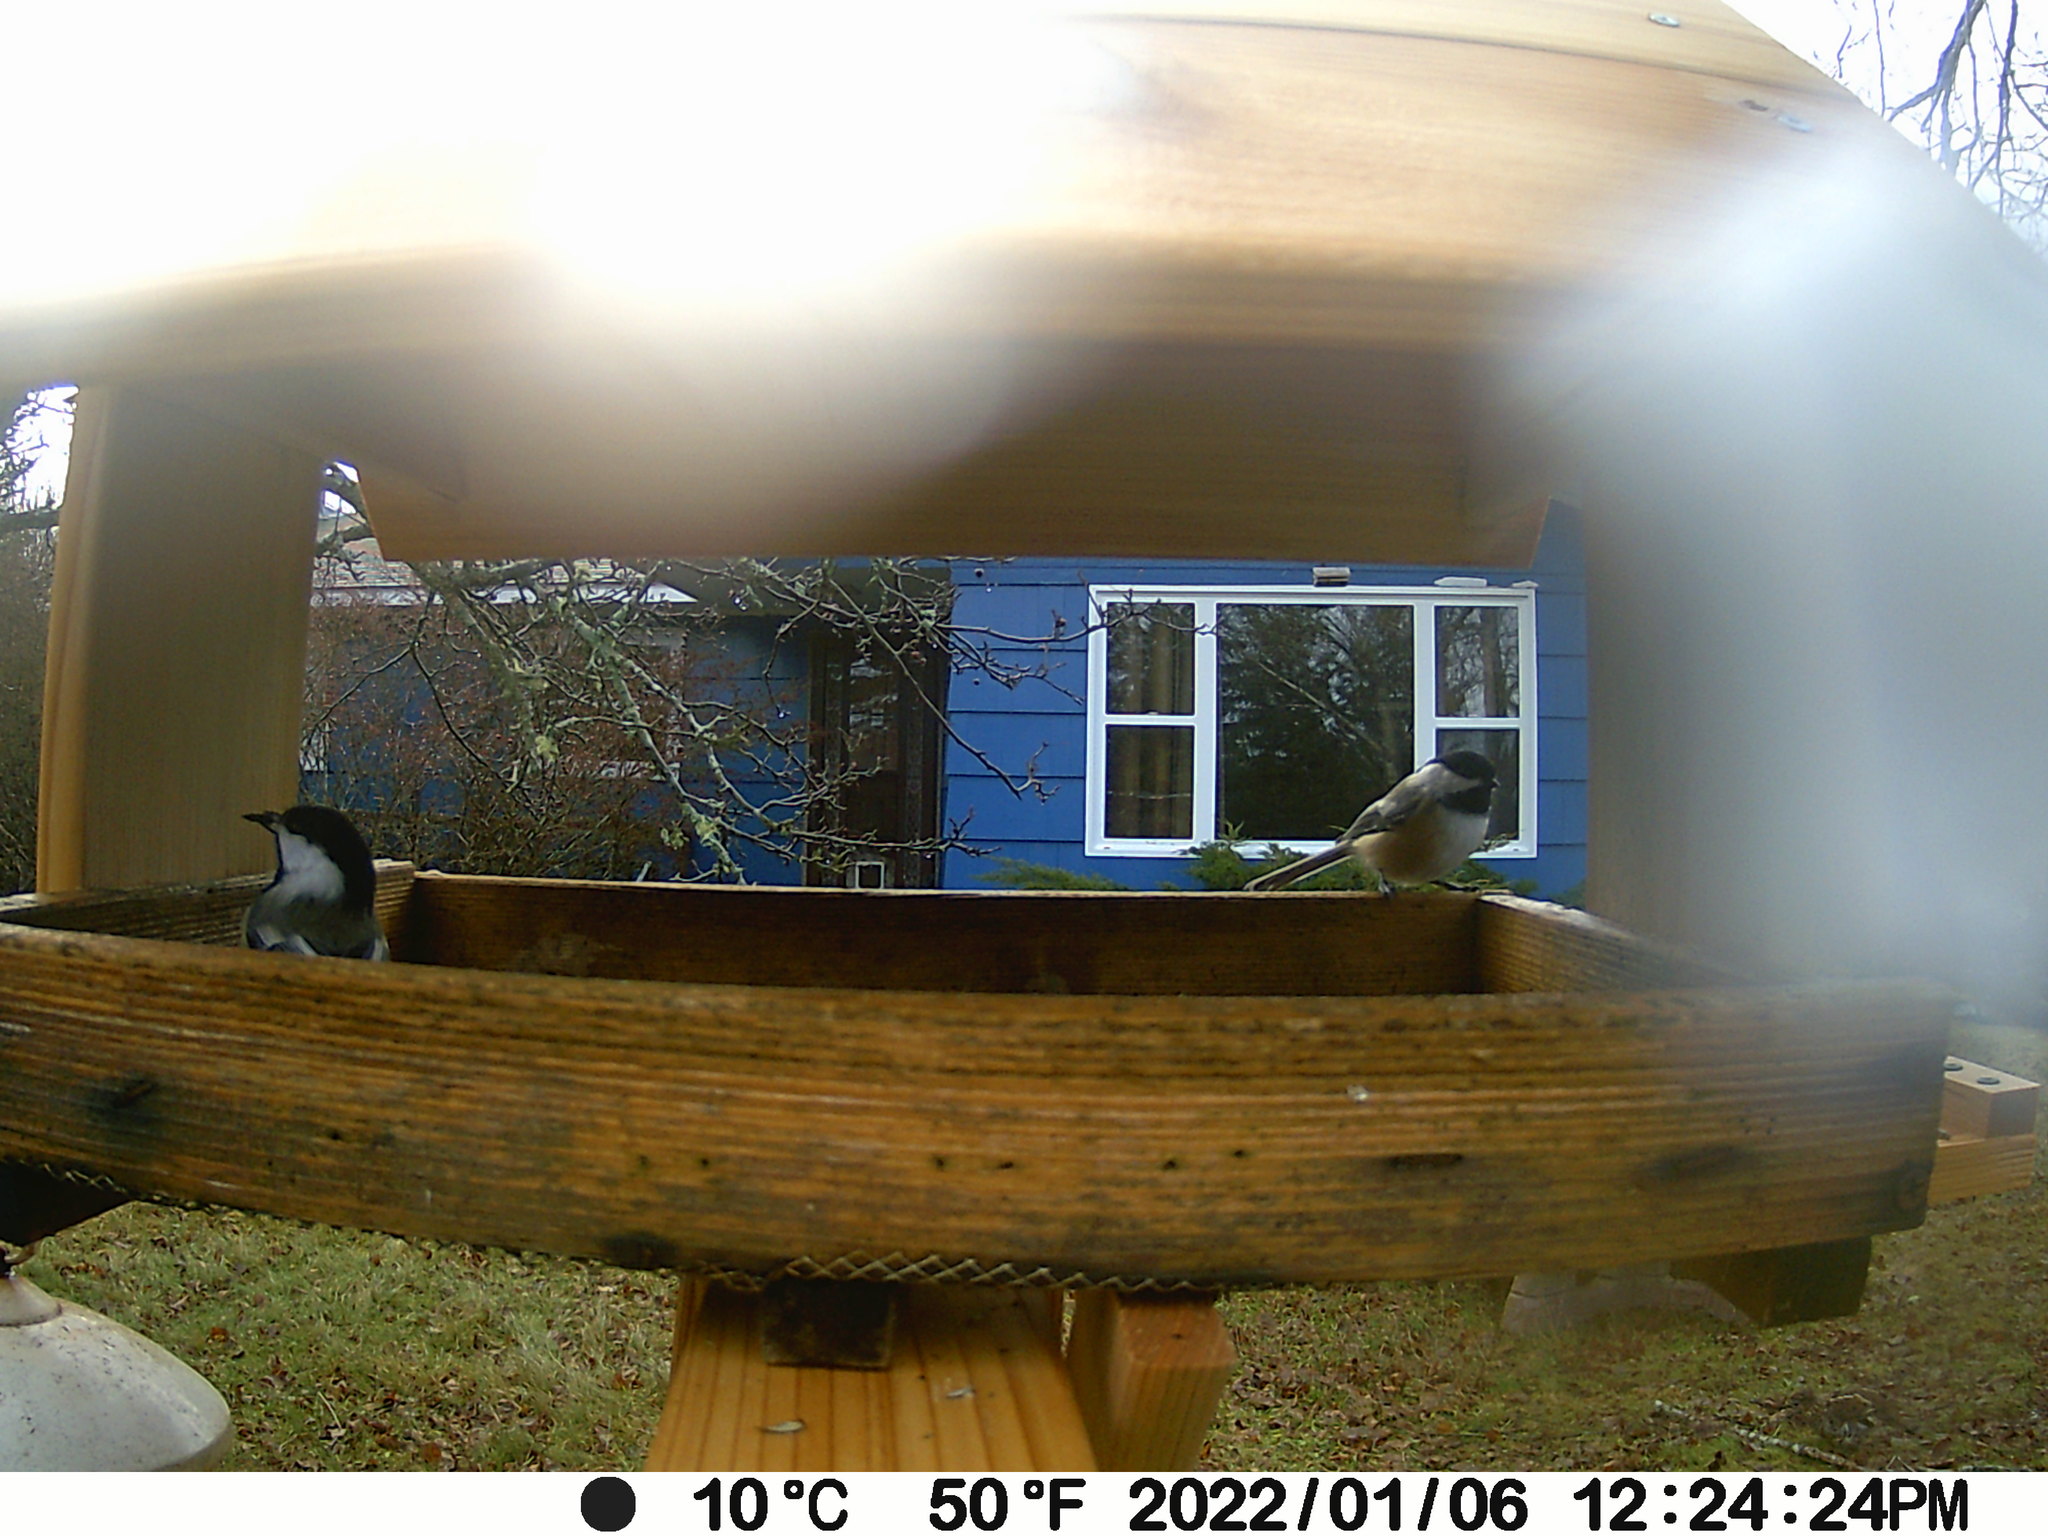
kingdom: Animalia
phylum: Chordata
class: Aves
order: Galliformes
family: Phasianidae
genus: Bonasa
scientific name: Bonasa umbellus
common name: Ruffed grouse
